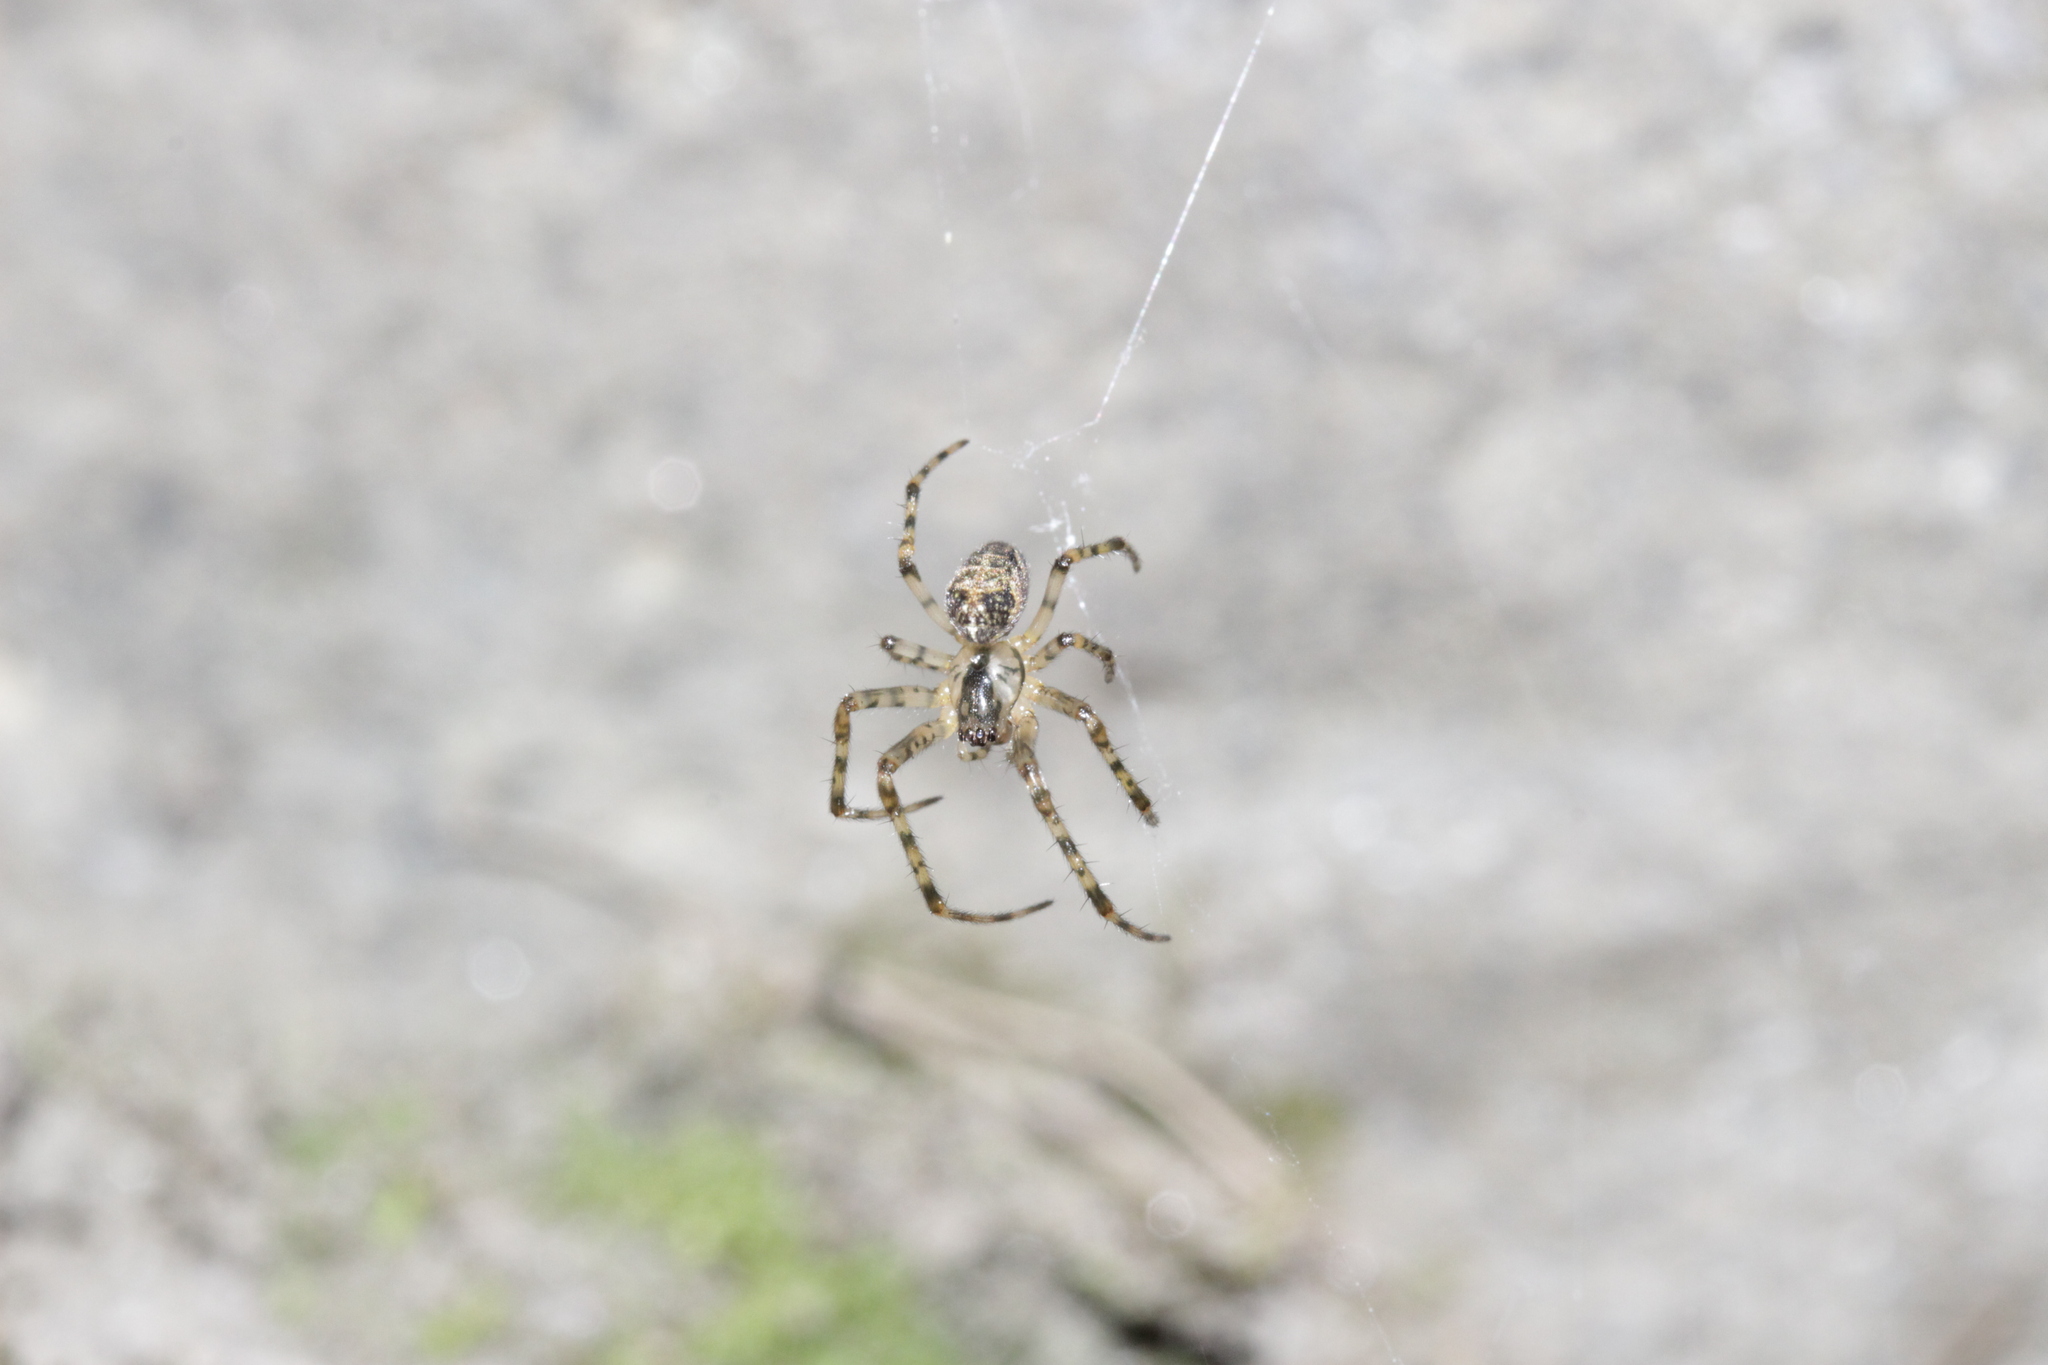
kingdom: Animalia
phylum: Arthropoda
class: Arachnida
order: Araneae
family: Tetragnathidae
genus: Metellina
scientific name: Metellina merianae
